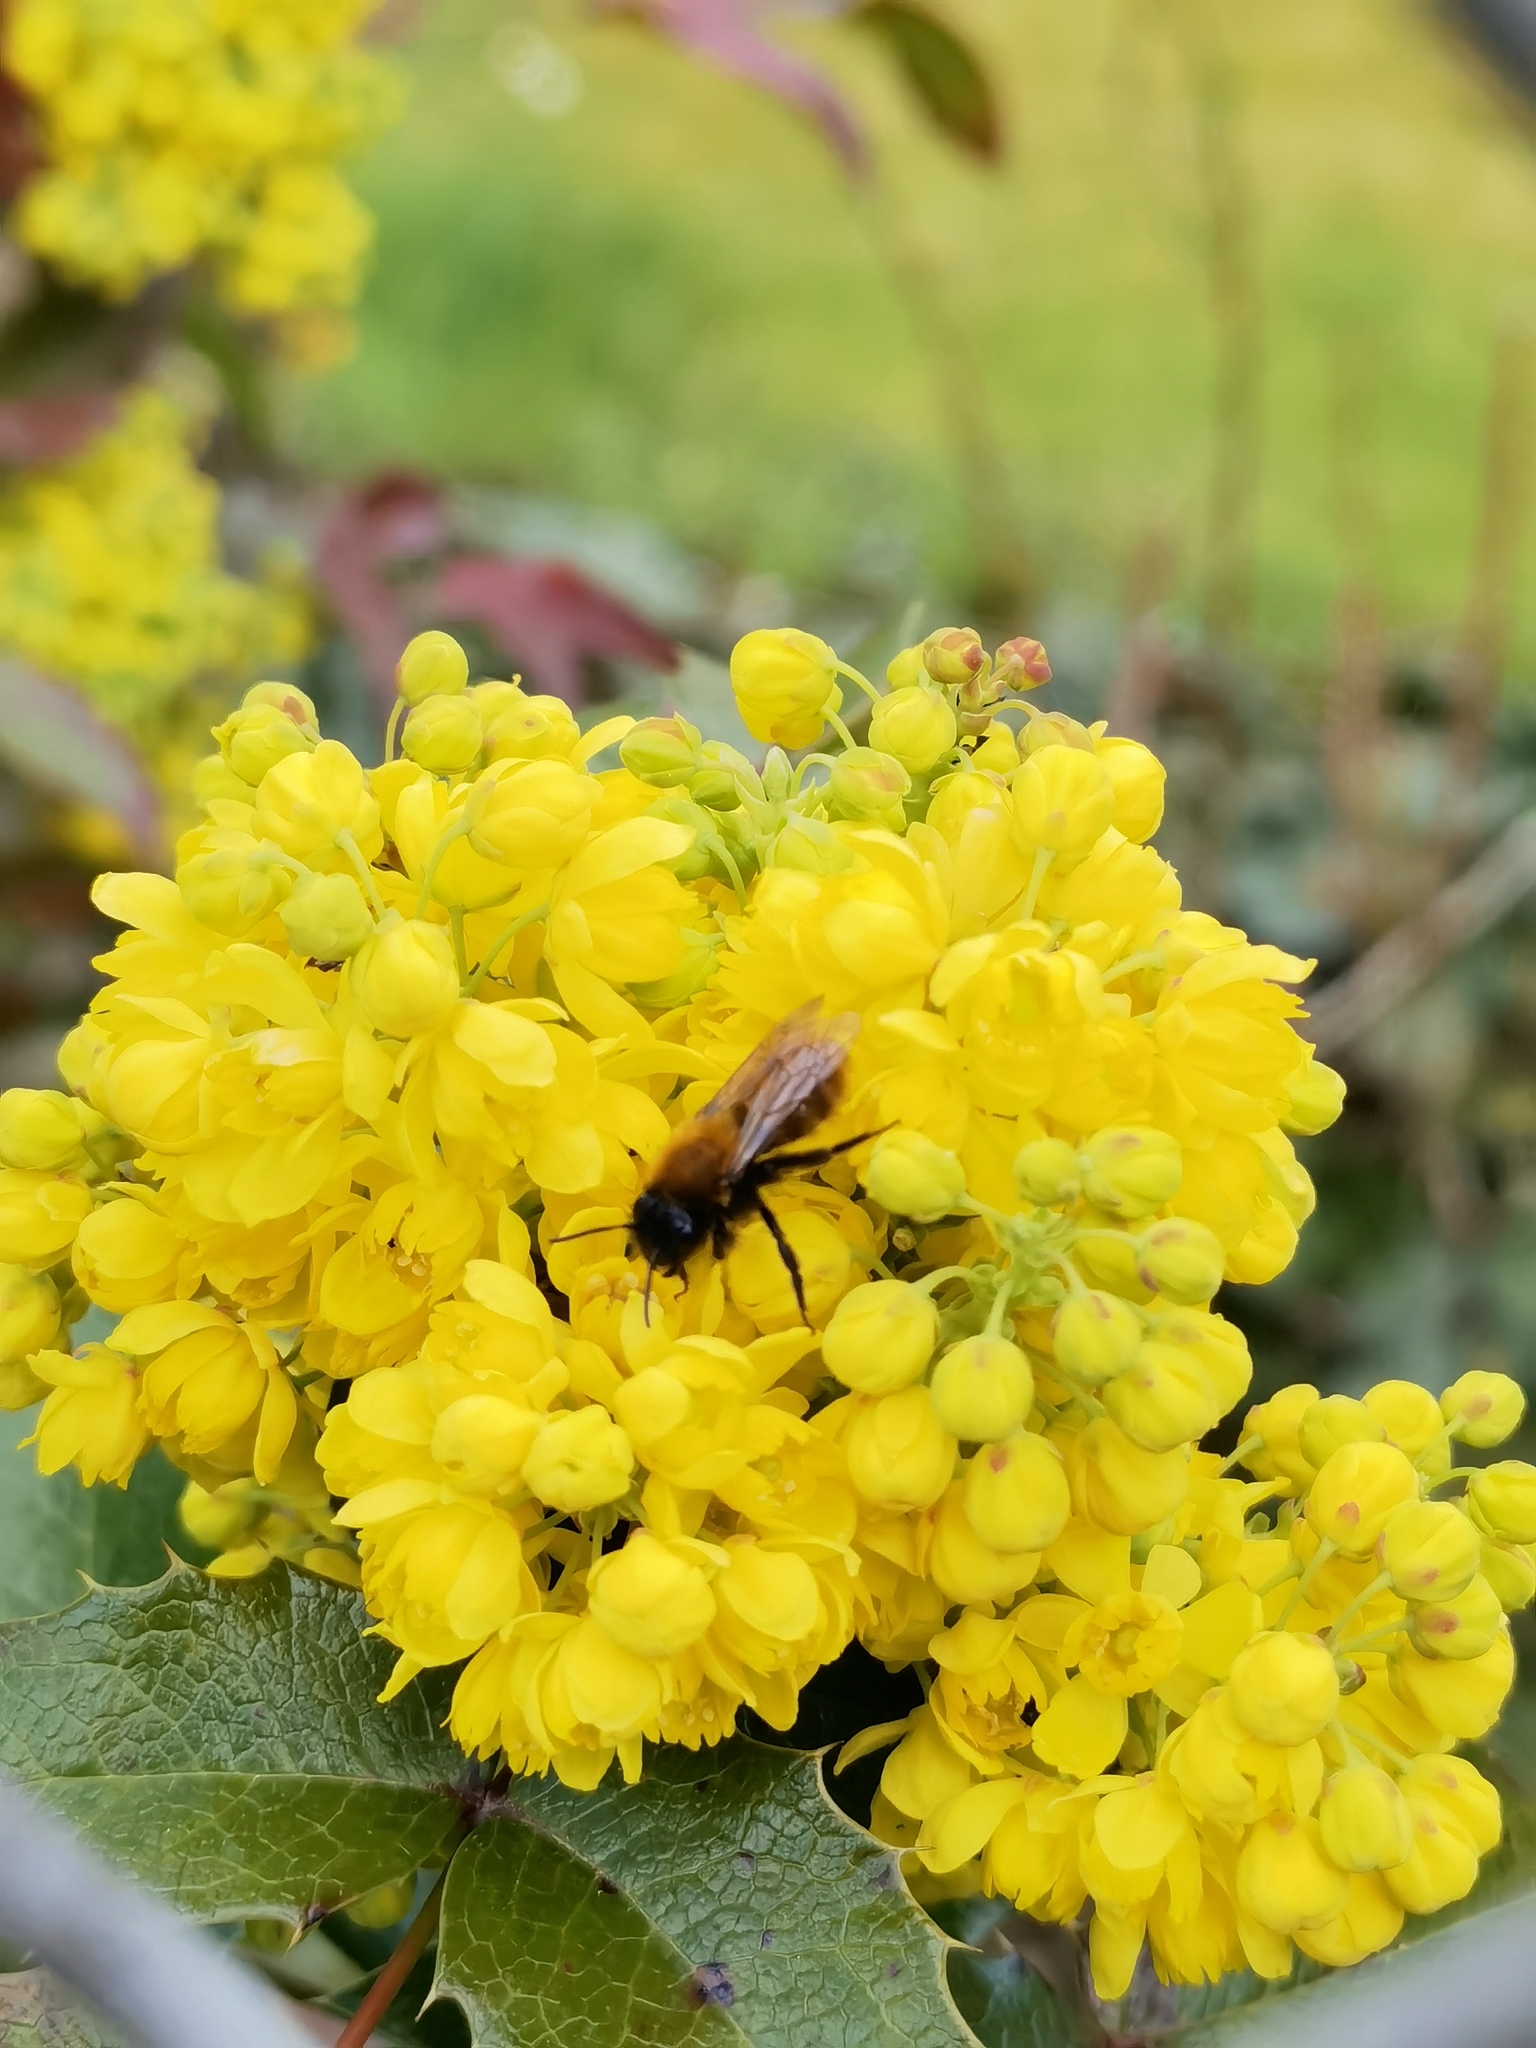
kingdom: Animalia
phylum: Arthropoda
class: Insecta
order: Hymenoptera
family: Andrenidae
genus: Andrena
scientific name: Andrena fulva
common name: Tawny mining bee
